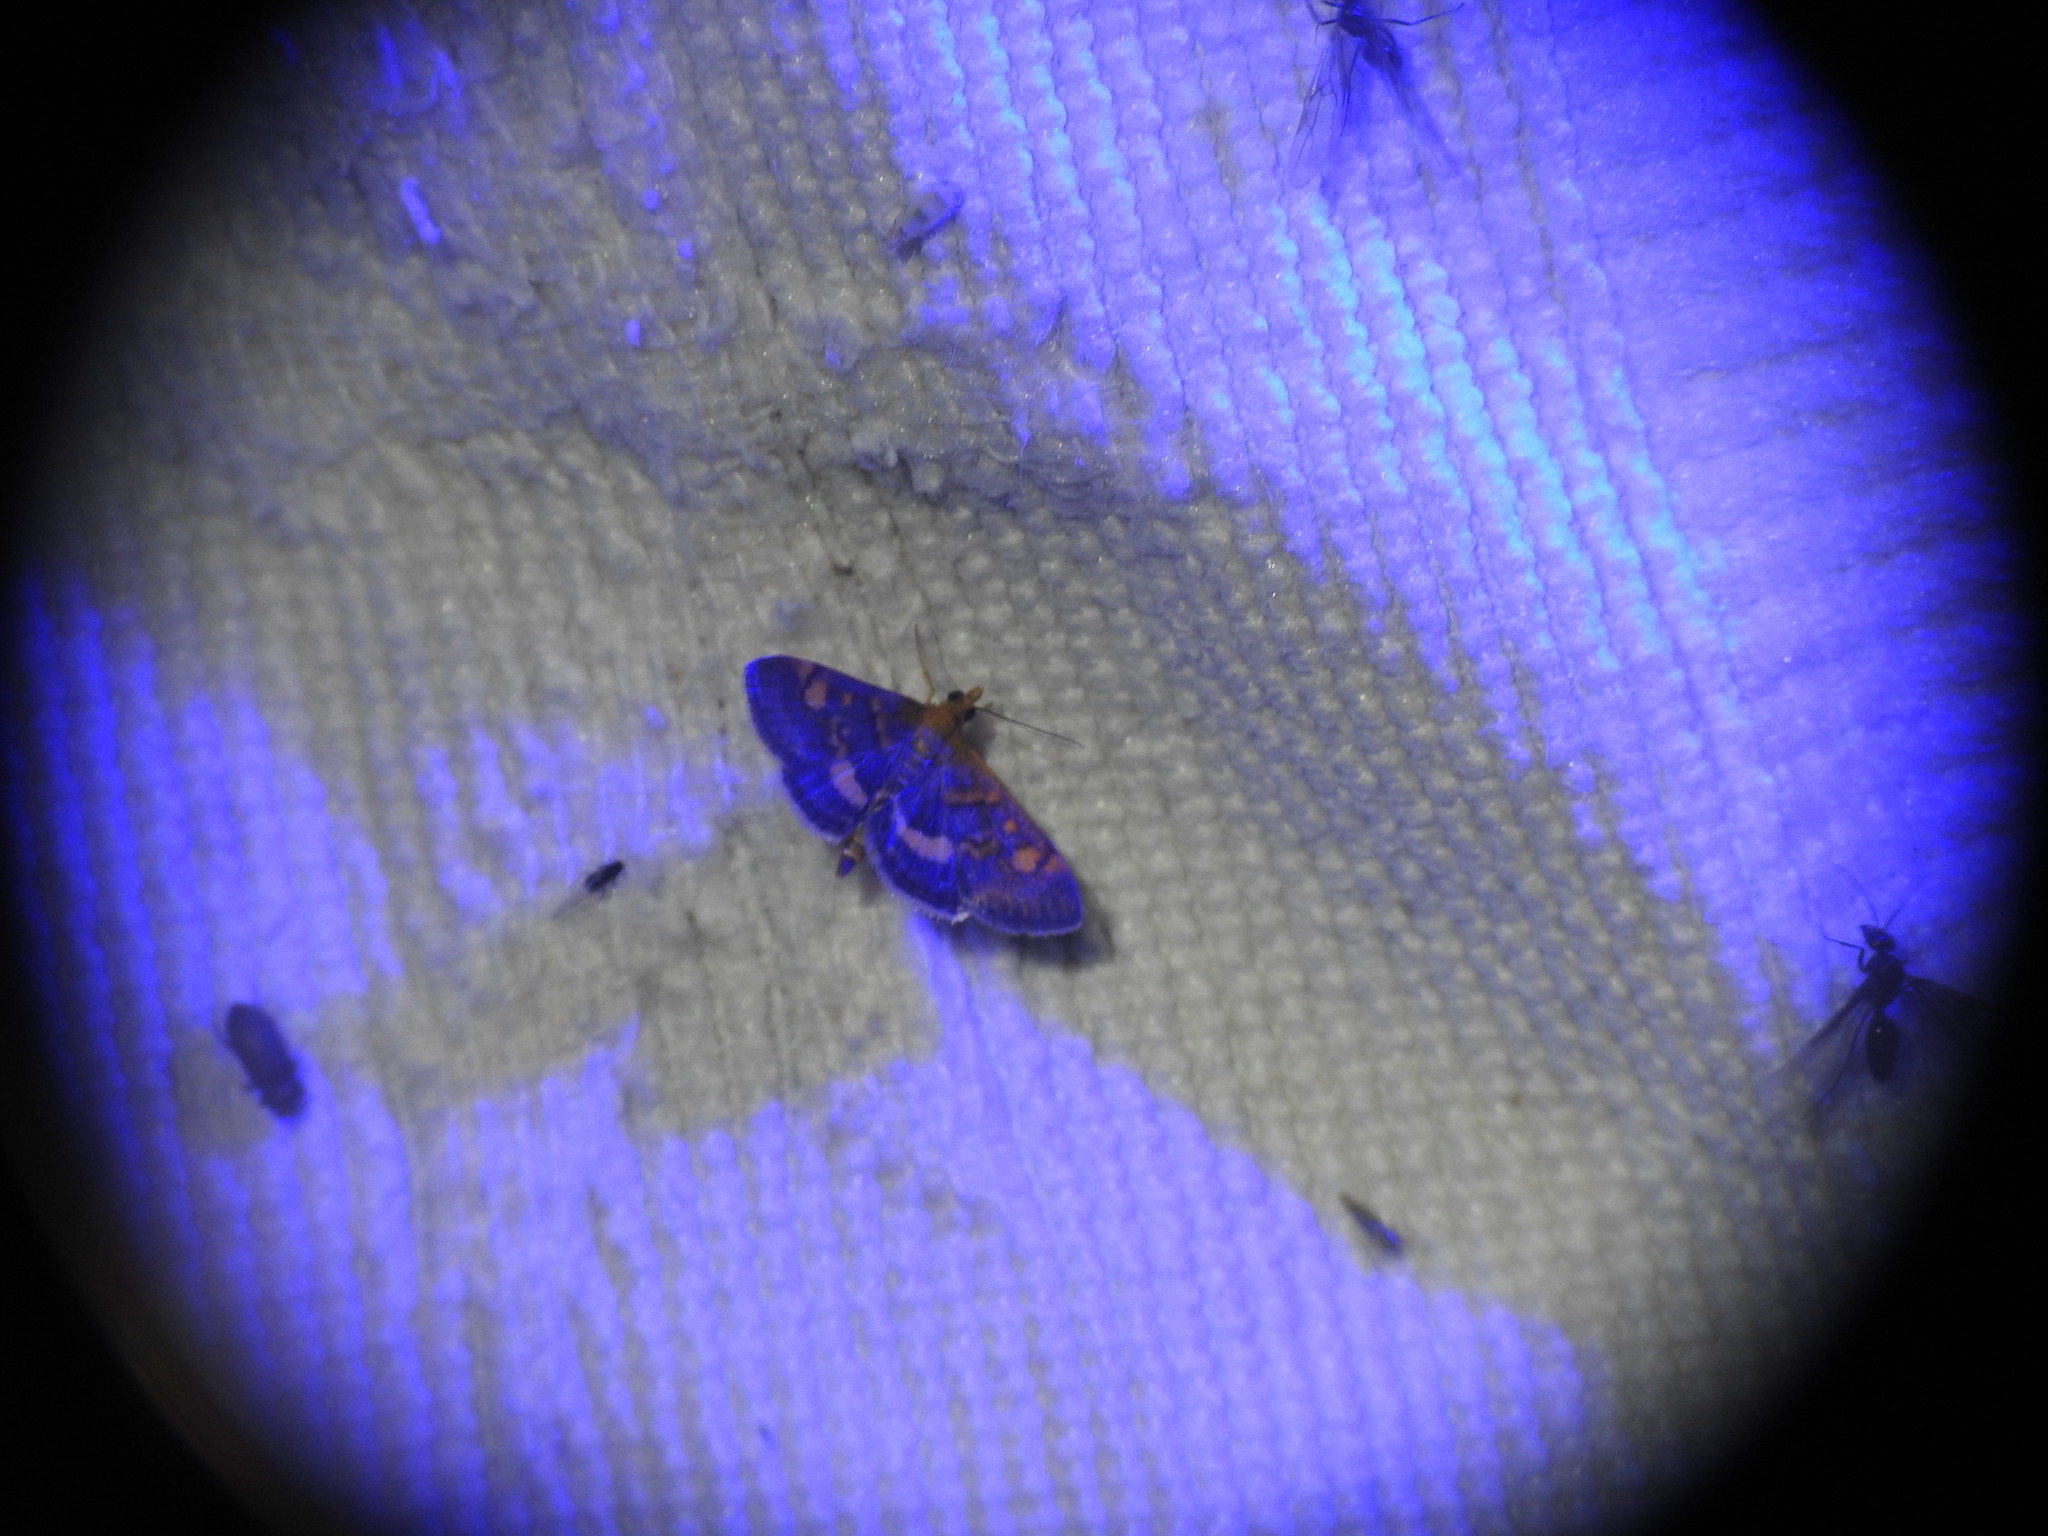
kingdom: Animalia
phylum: Arthropoda
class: Insecta
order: Lepidoptera
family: Crambidae
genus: Pyrausta
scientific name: Pyrausta aurata
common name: Small purple & gold
